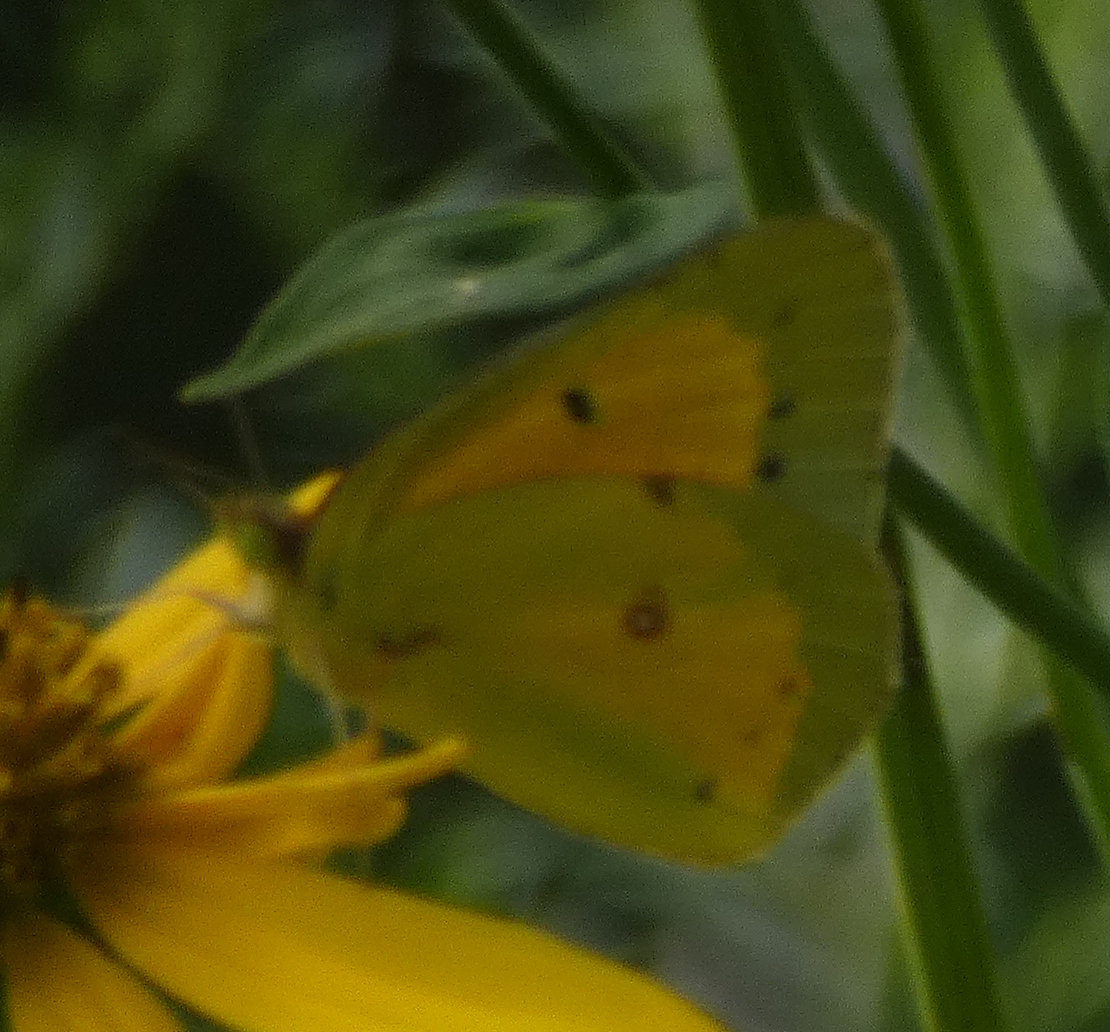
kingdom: Animalia
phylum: Arthropoda
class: Insecta
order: Lepidoptera
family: Pieridae
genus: Colias
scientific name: Colias eurytheme
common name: Alfalfa butterfly
